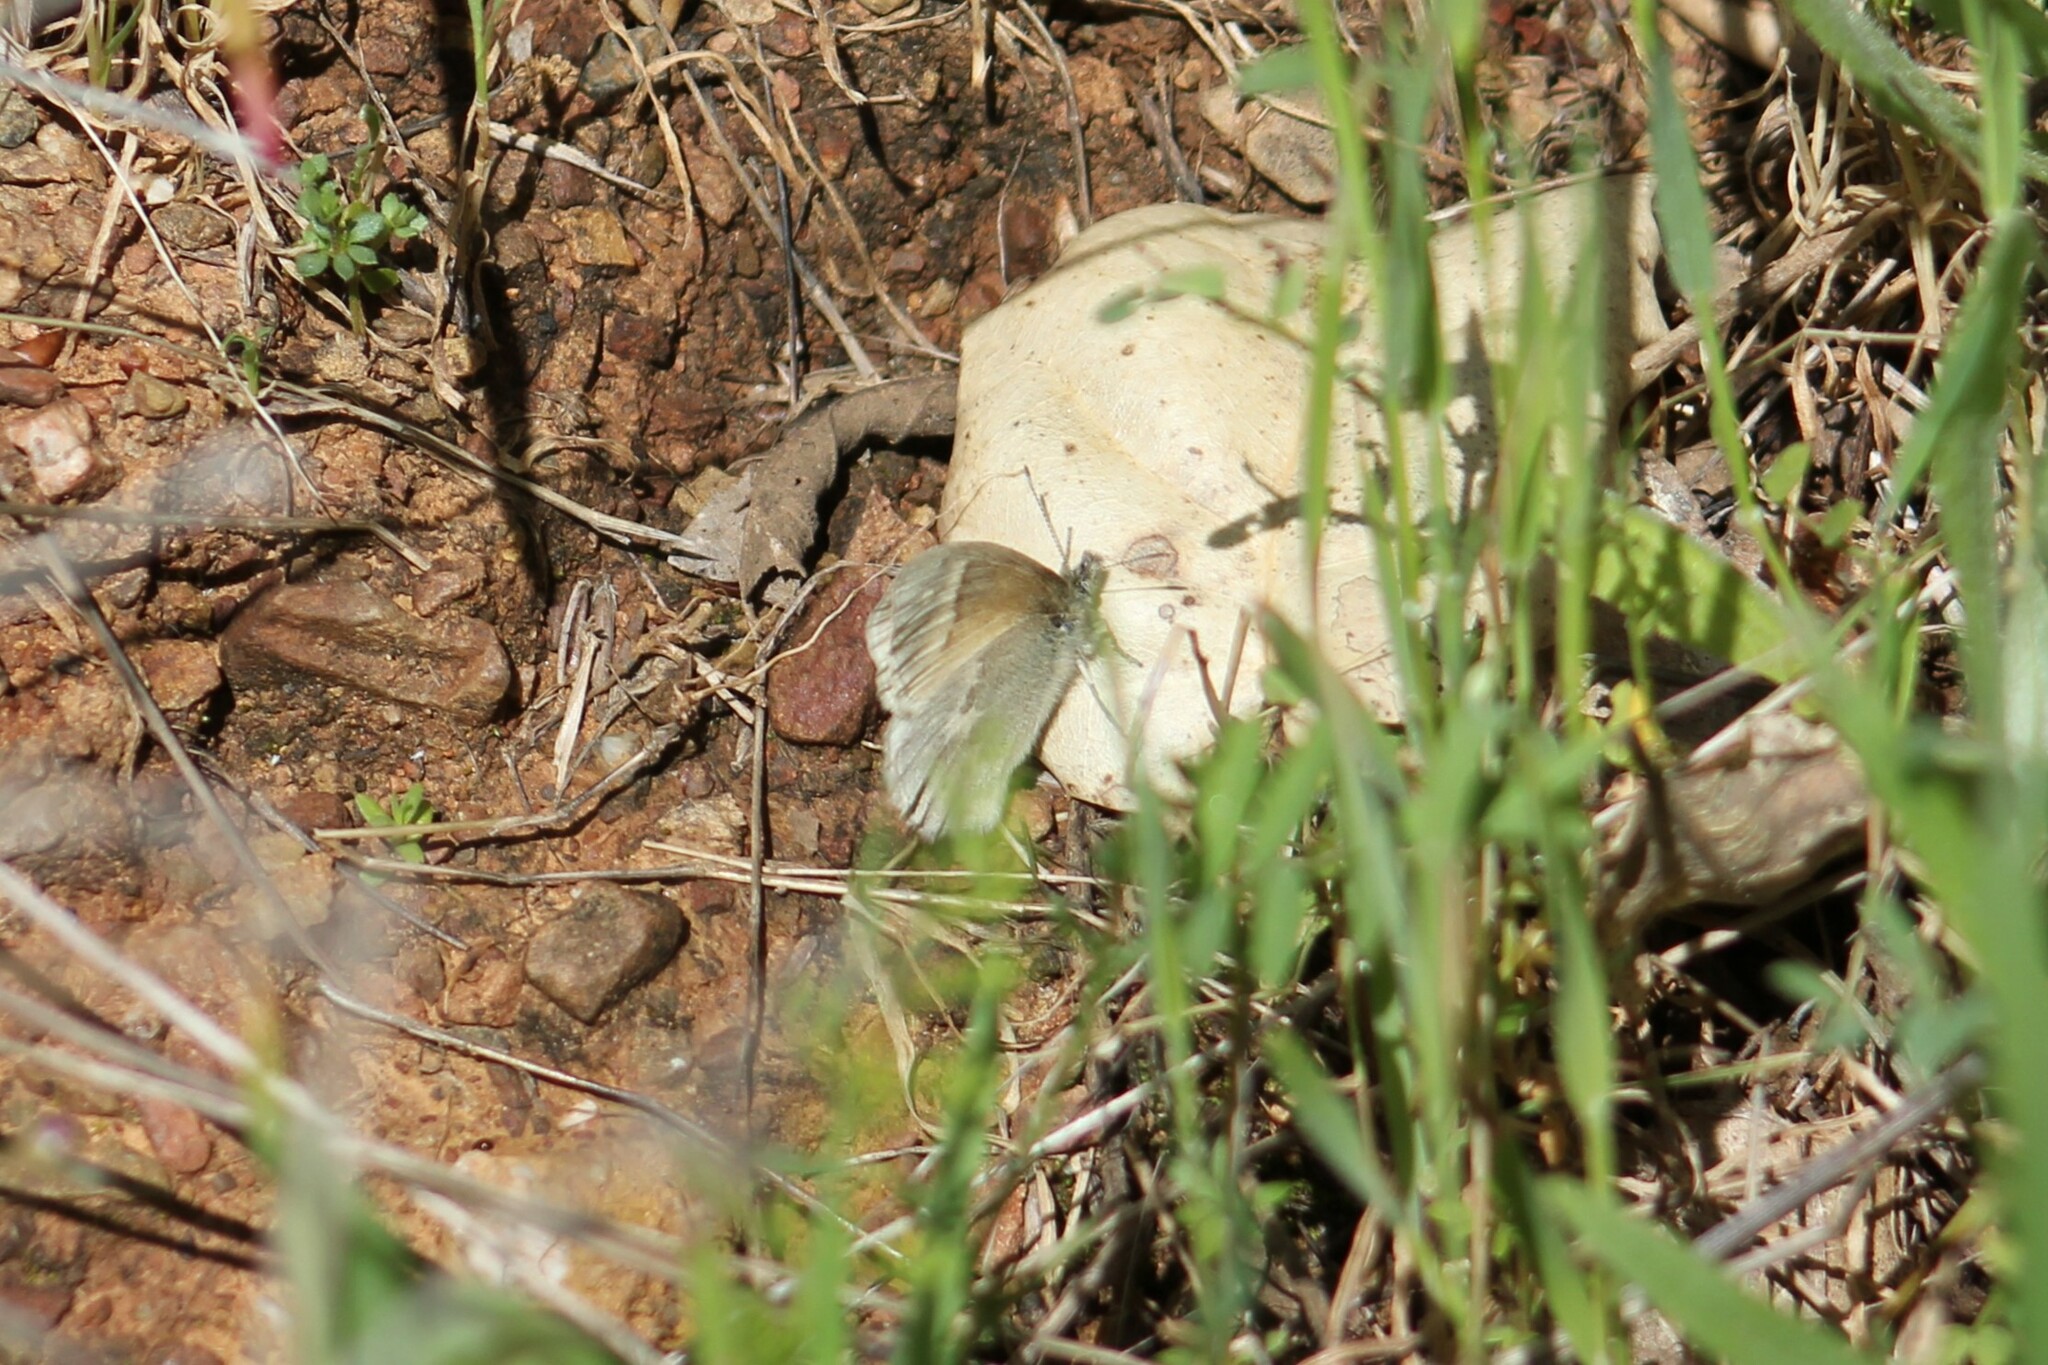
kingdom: Animalia
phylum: Arthropoda
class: Insecta
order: Lepidoptera
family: Nymphalidae
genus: Coenonympha
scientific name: Coenonympha california
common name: Common ringlet
